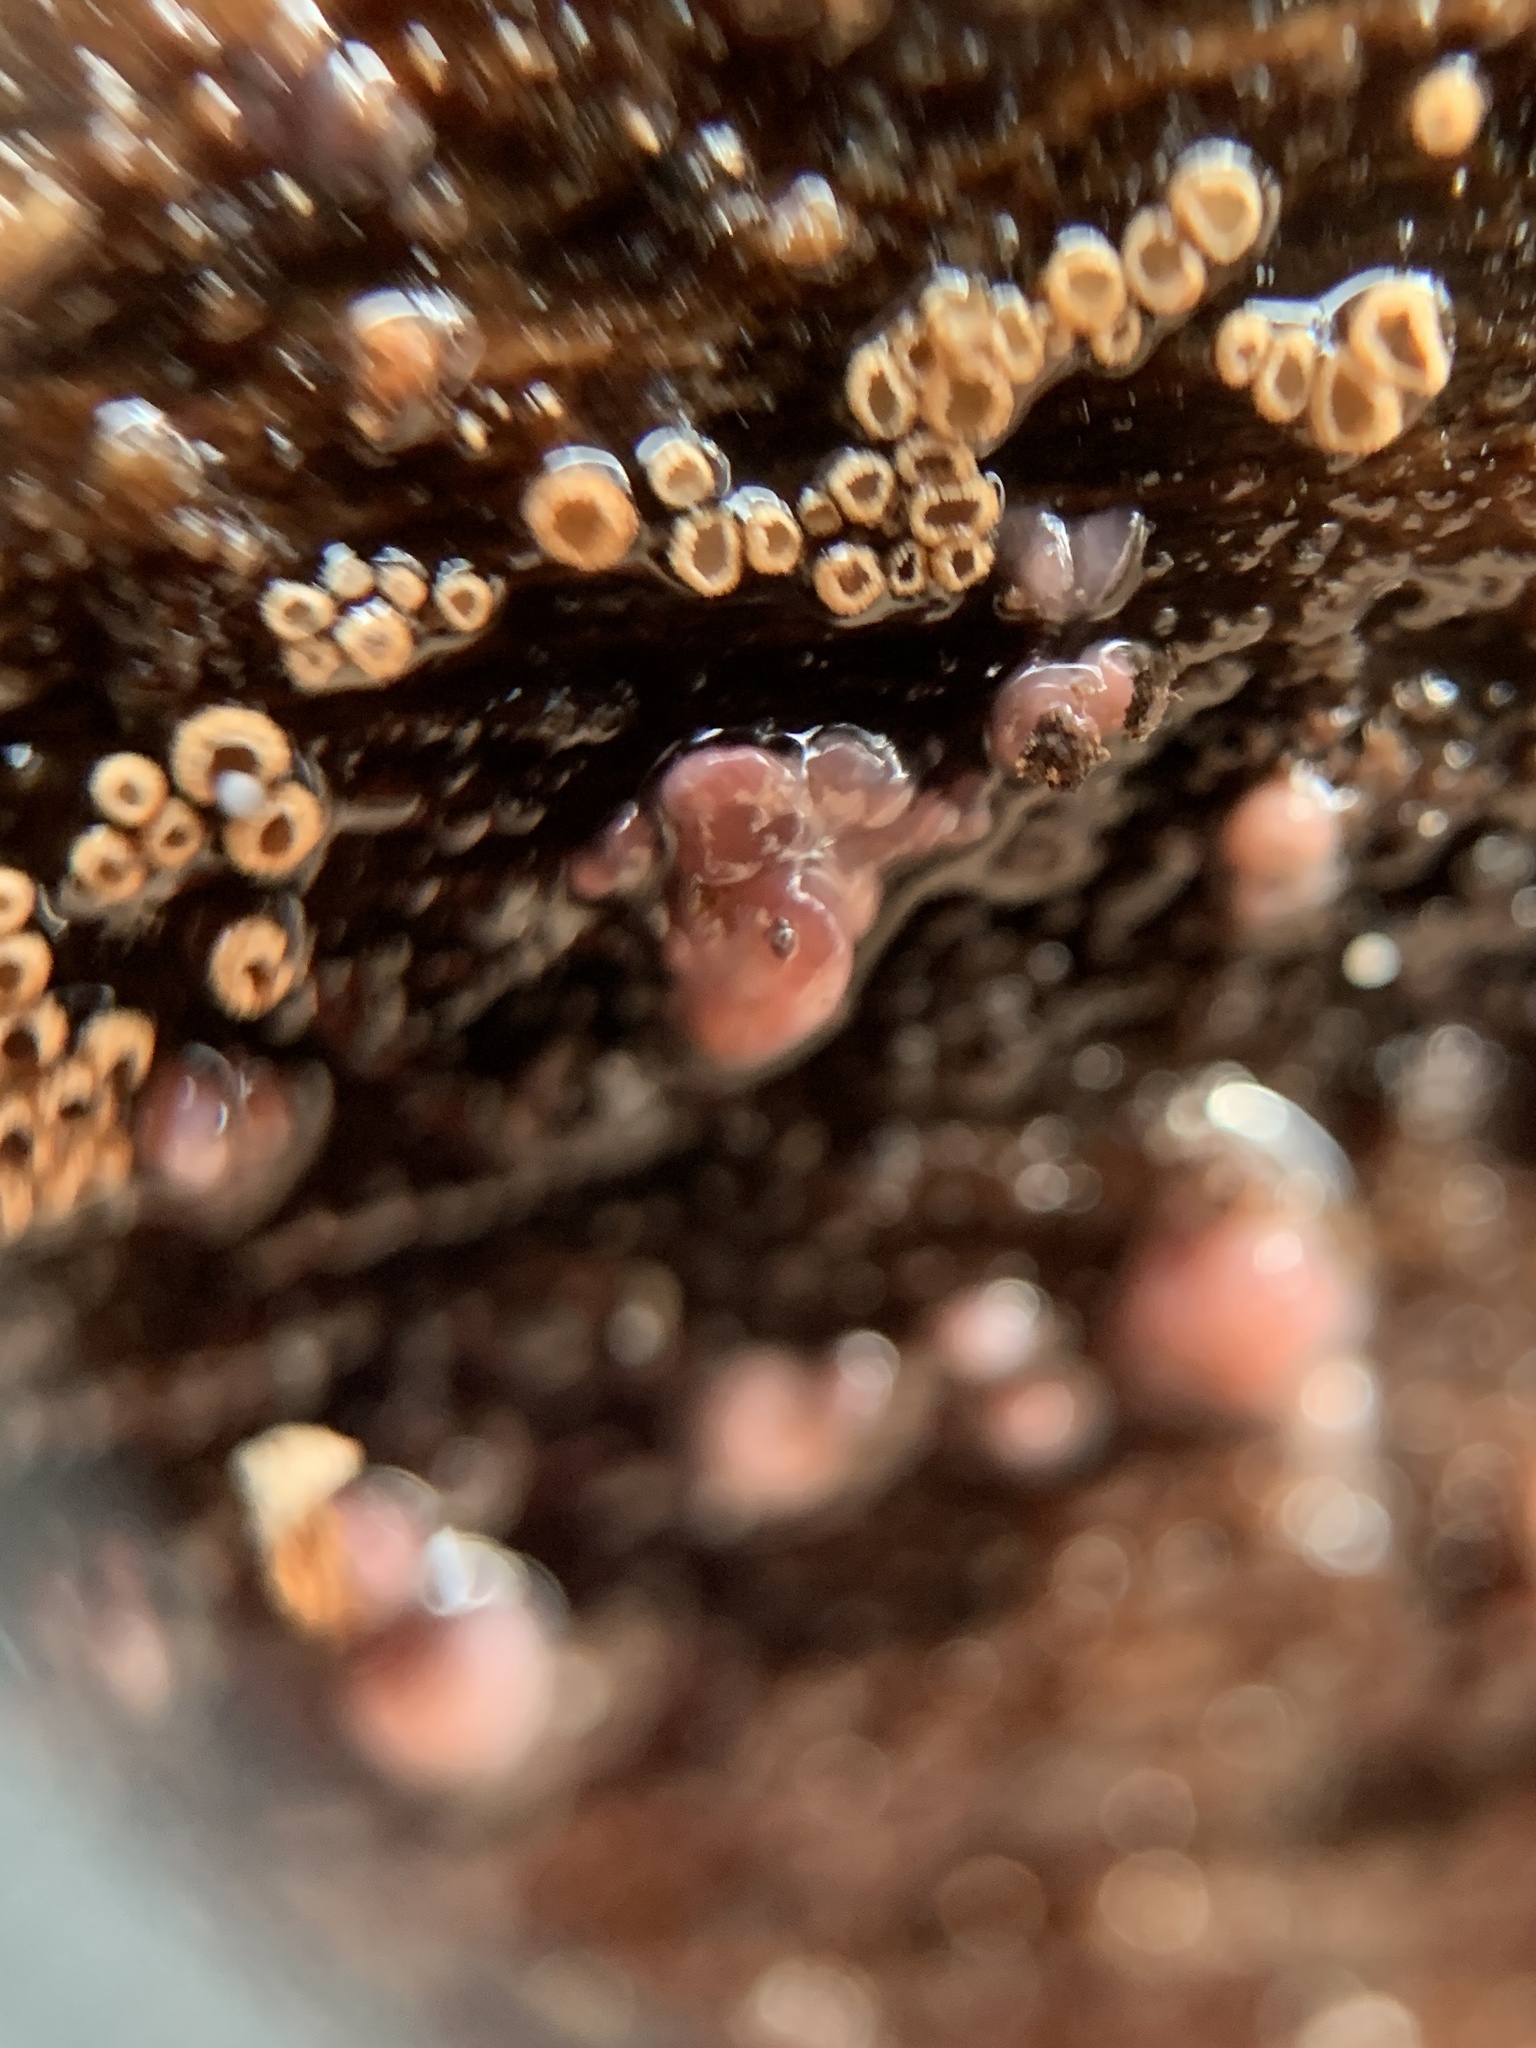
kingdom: Fungi
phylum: Ascomycota
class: Leotiomycetes
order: Helotiales
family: Gelatinodiscaceae
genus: Ascocoryne
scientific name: Ascocoryne sarcoides
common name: Purple jellydisc
